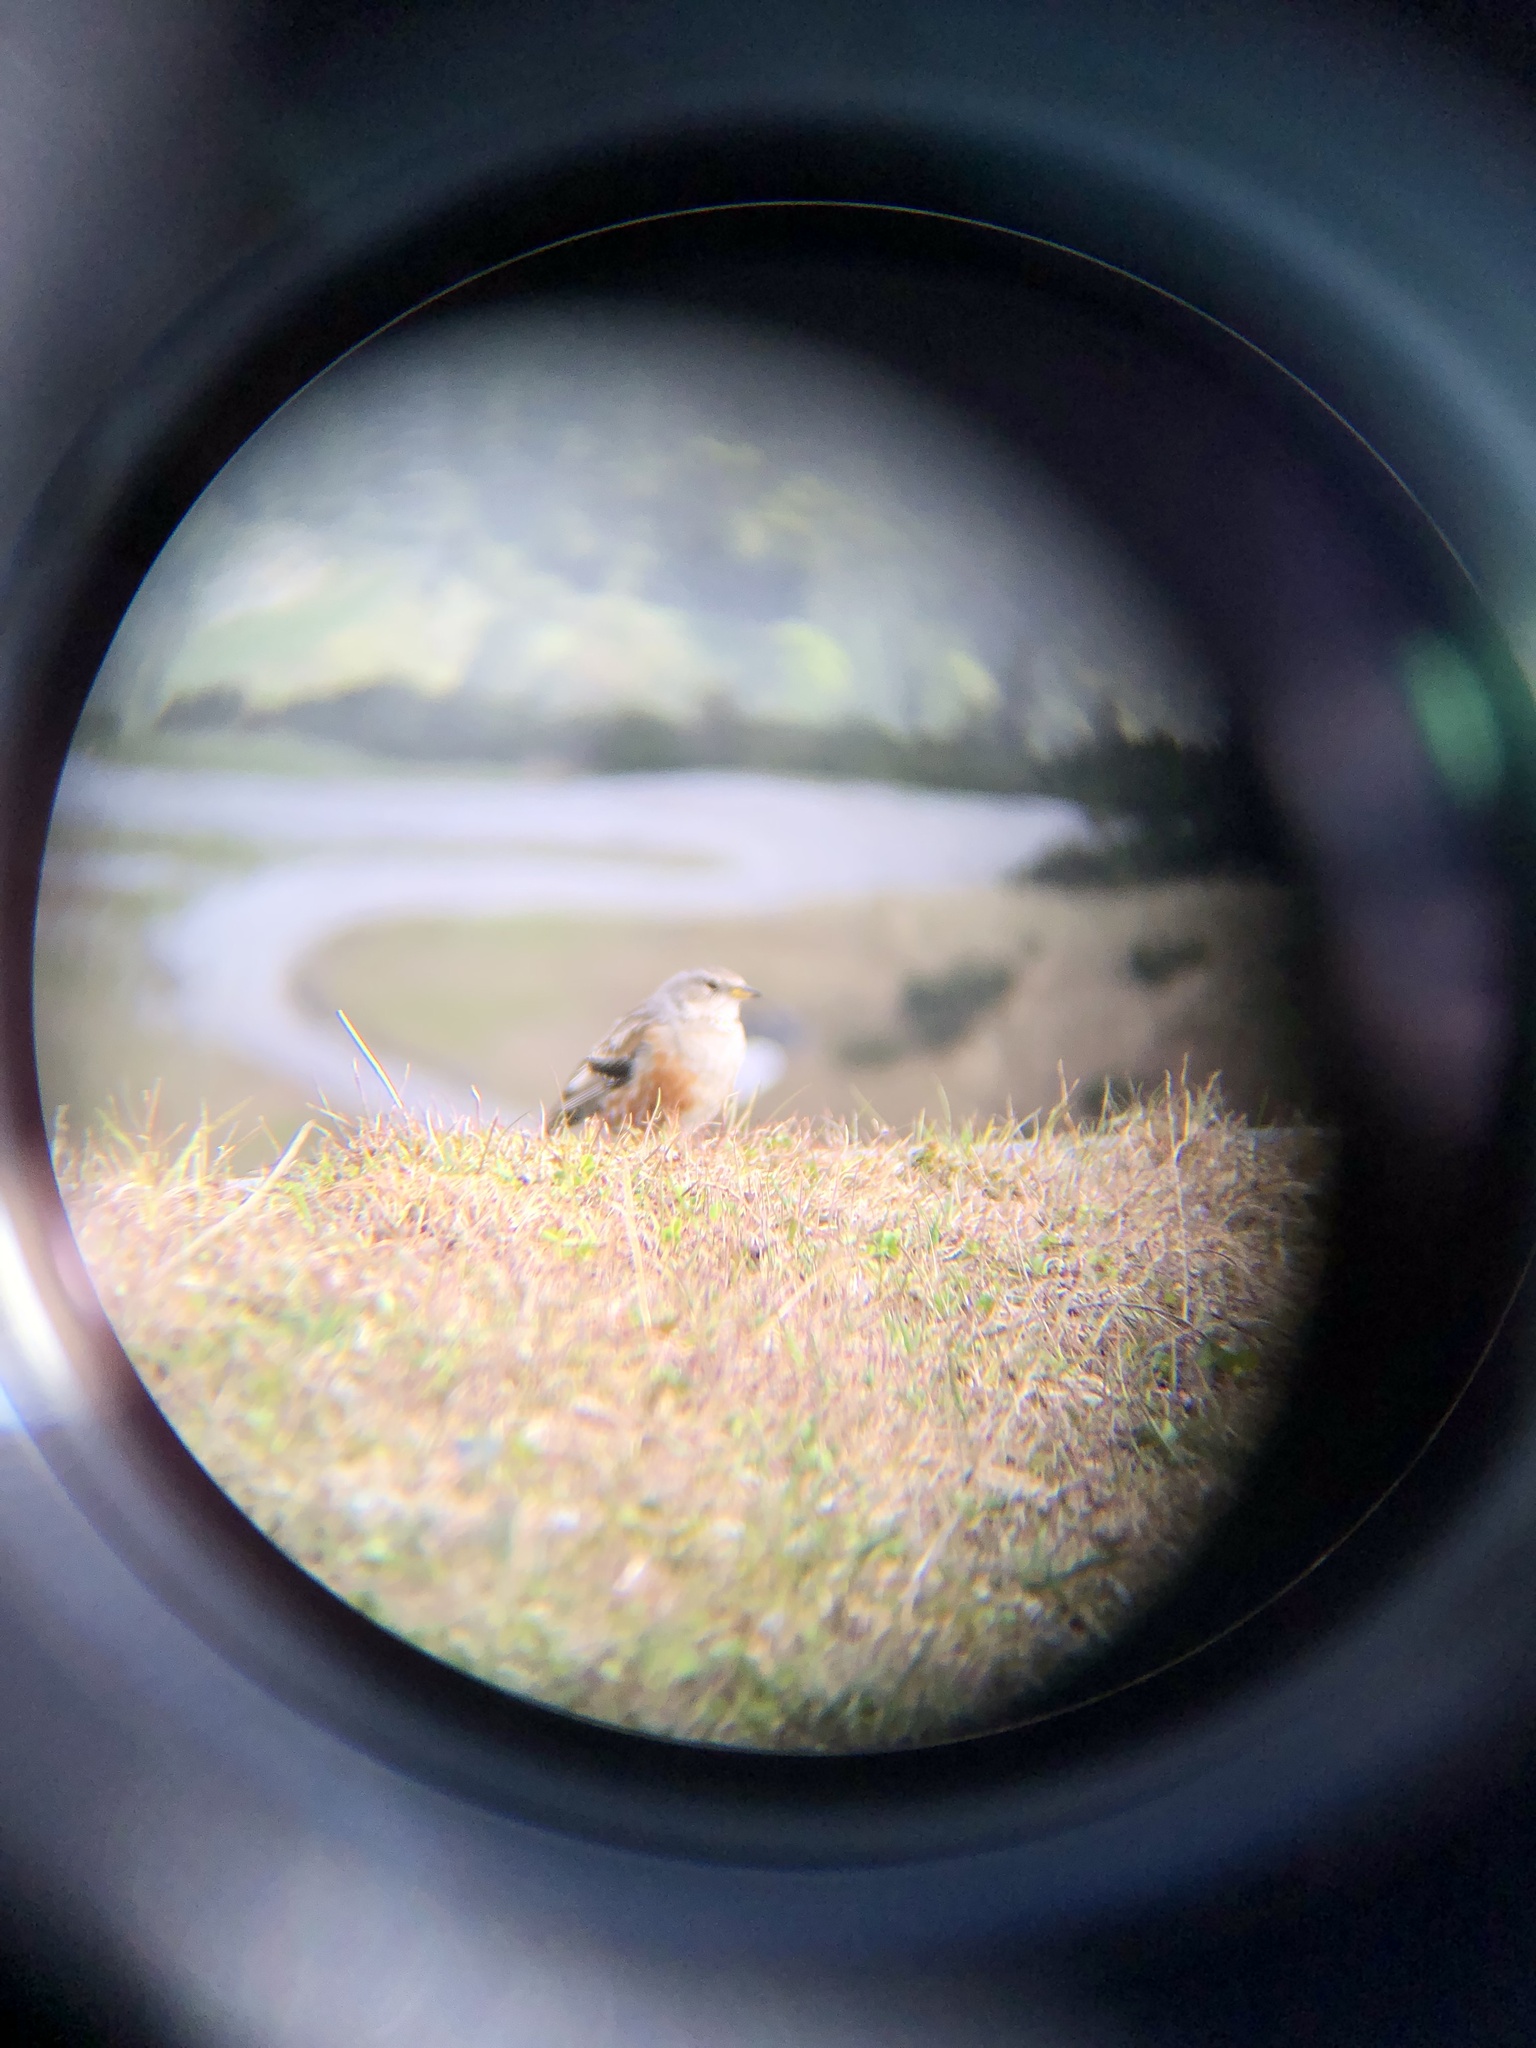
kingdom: Animalia
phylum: Chordata
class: Aves
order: Passeriformes
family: Prunellidae
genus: Prunella
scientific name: Prunella collaris
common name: Alpine accentor
